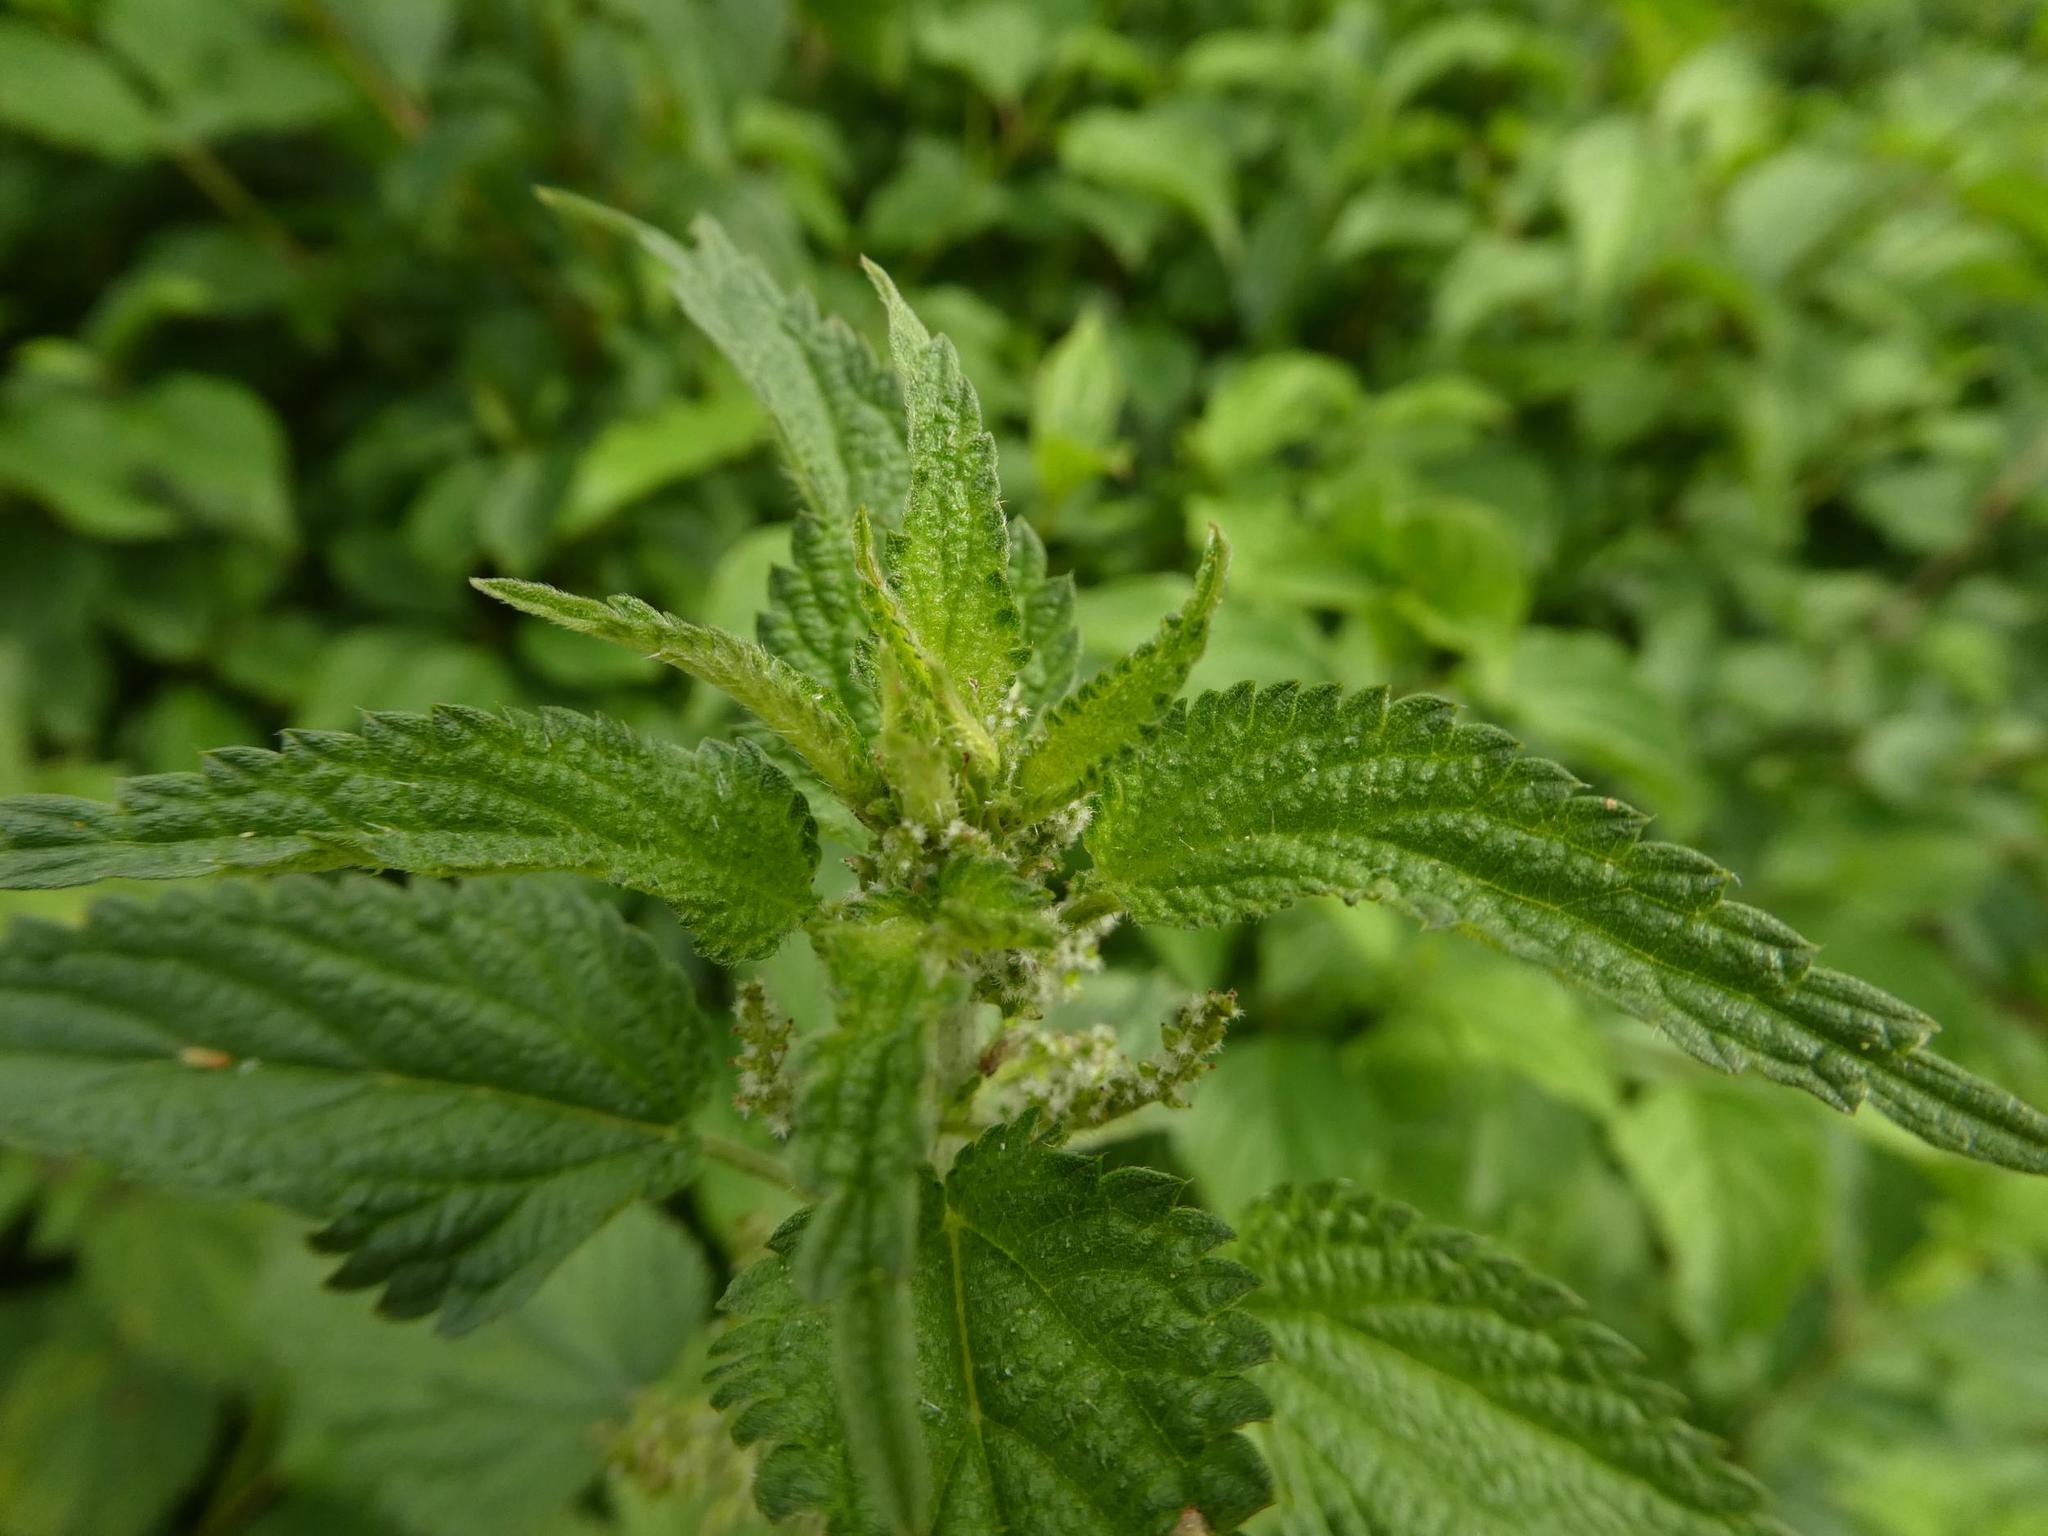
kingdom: Plantae
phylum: Tracheophyta
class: Magnoliopsida
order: Rosales
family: Urticaceae
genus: Urtica
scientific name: Urtica dioica
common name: Common nettle
